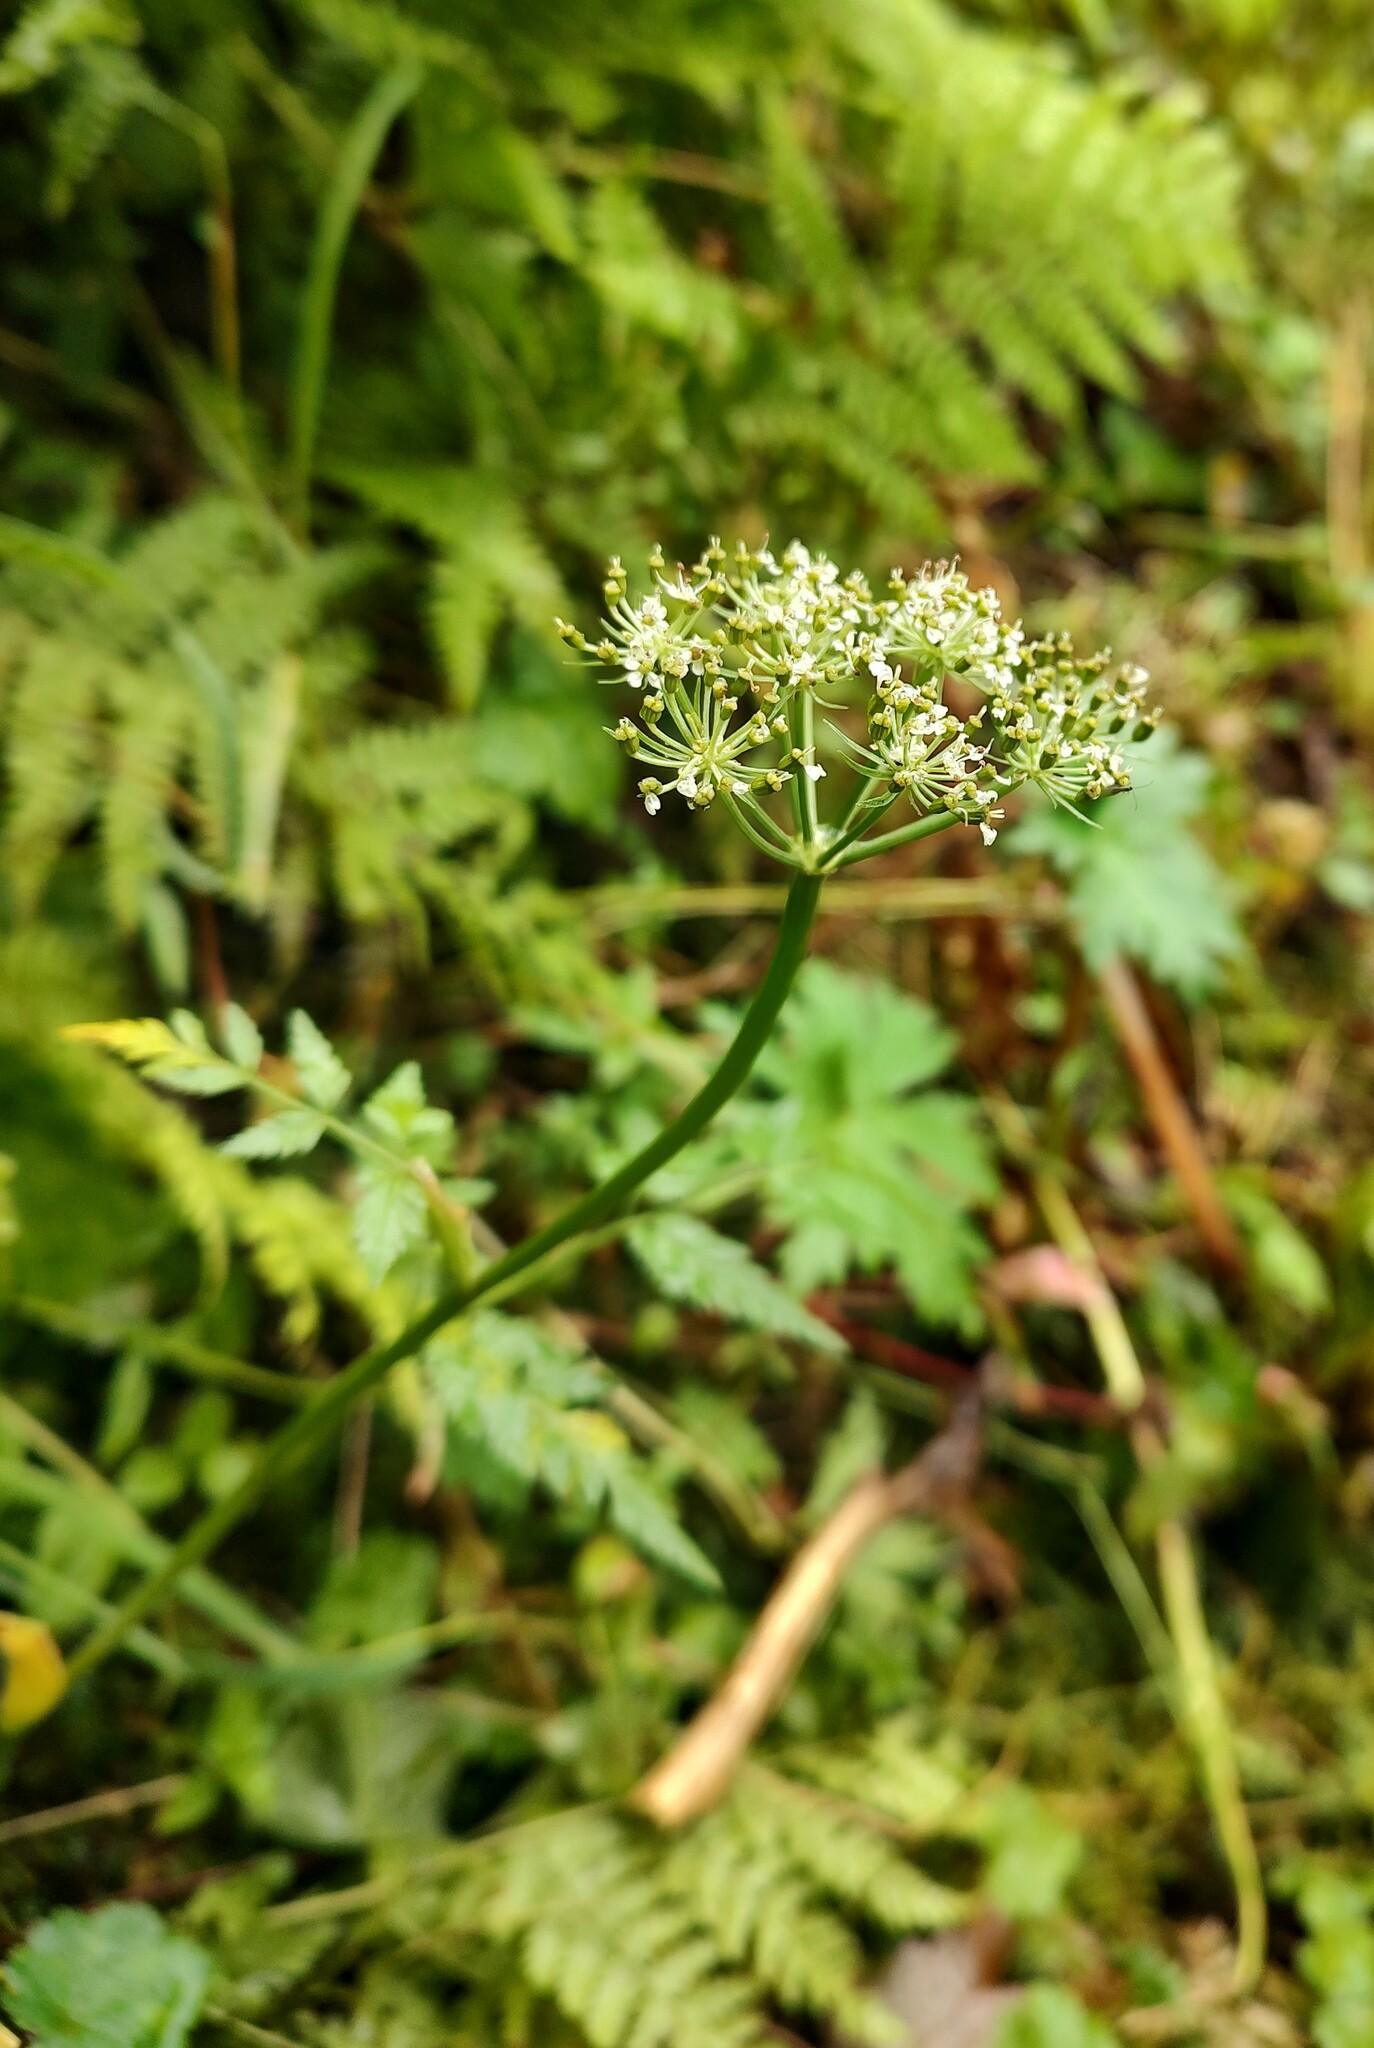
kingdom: Plantae
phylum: Tracheophyta
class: Magnoliopsida
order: Apiales
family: Apiaceae
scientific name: Apiaceae
